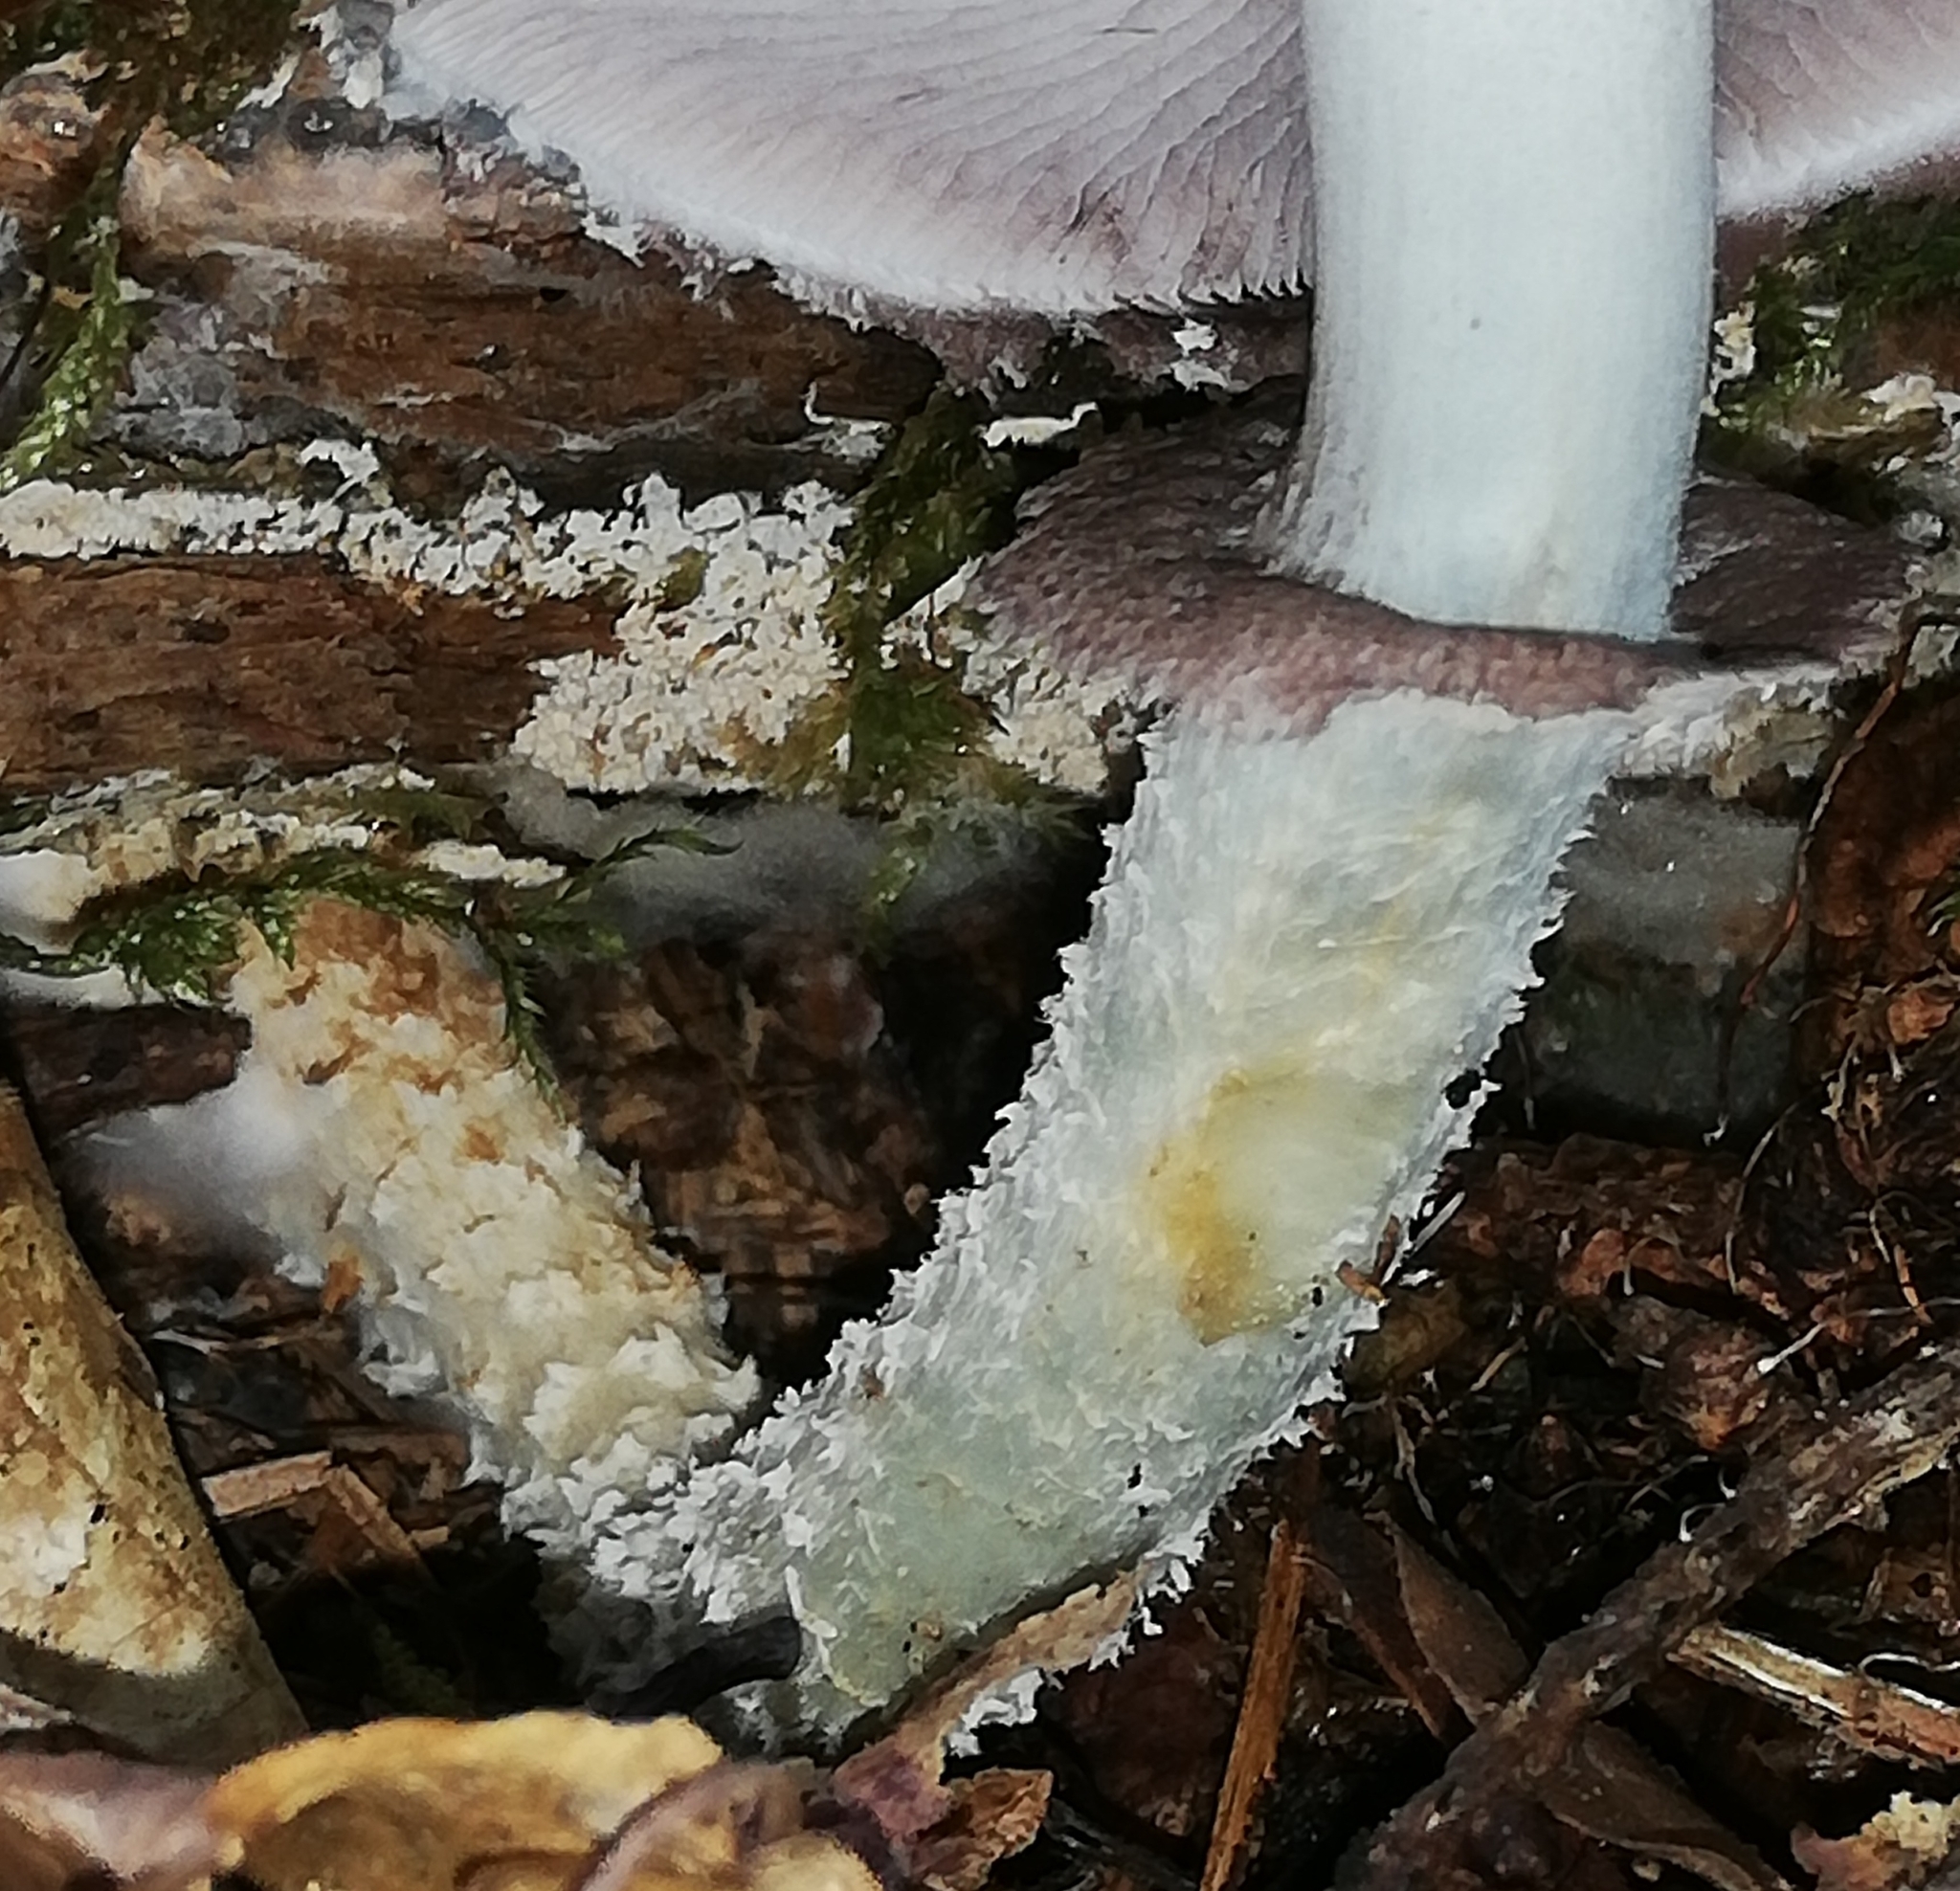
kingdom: Fungi
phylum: Basidiomycota
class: Agaricomycetes
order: Agaricales
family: Strophariaceae
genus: Stropharia
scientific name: Stropharia aeruginosa
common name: Verdigris roundhead
